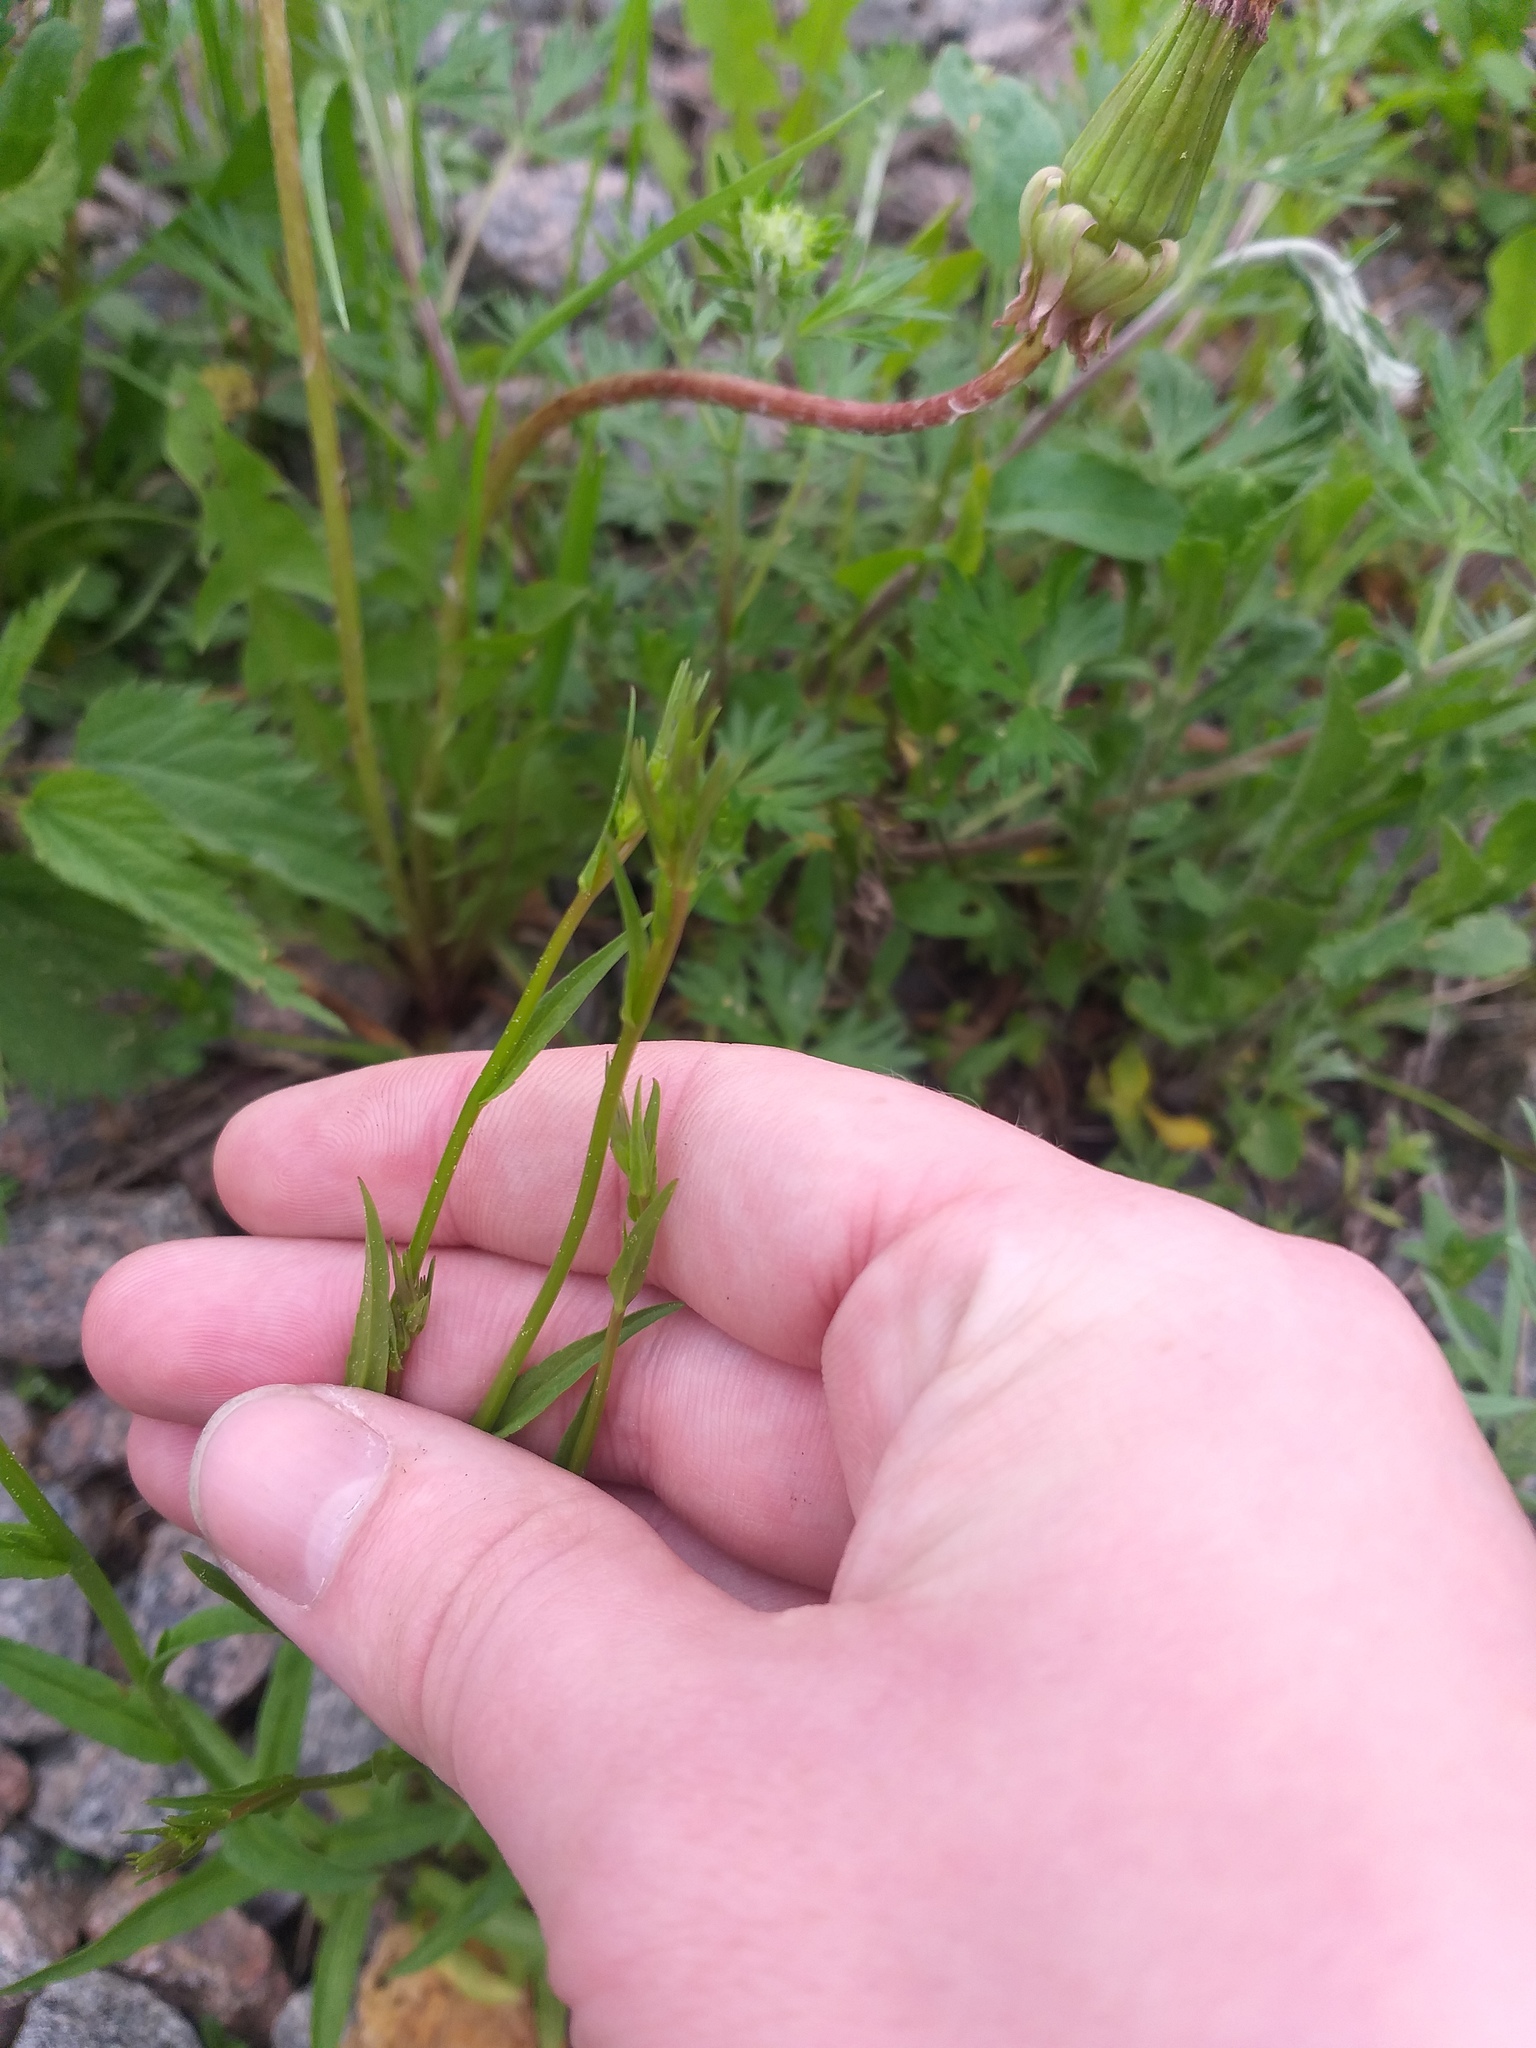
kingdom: Plantae
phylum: Tracheophyta
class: Magnoliopsida
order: Asterales
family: Campanulaceae
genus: Campanula
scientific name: Campanula patula
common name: Spreading bellflower
